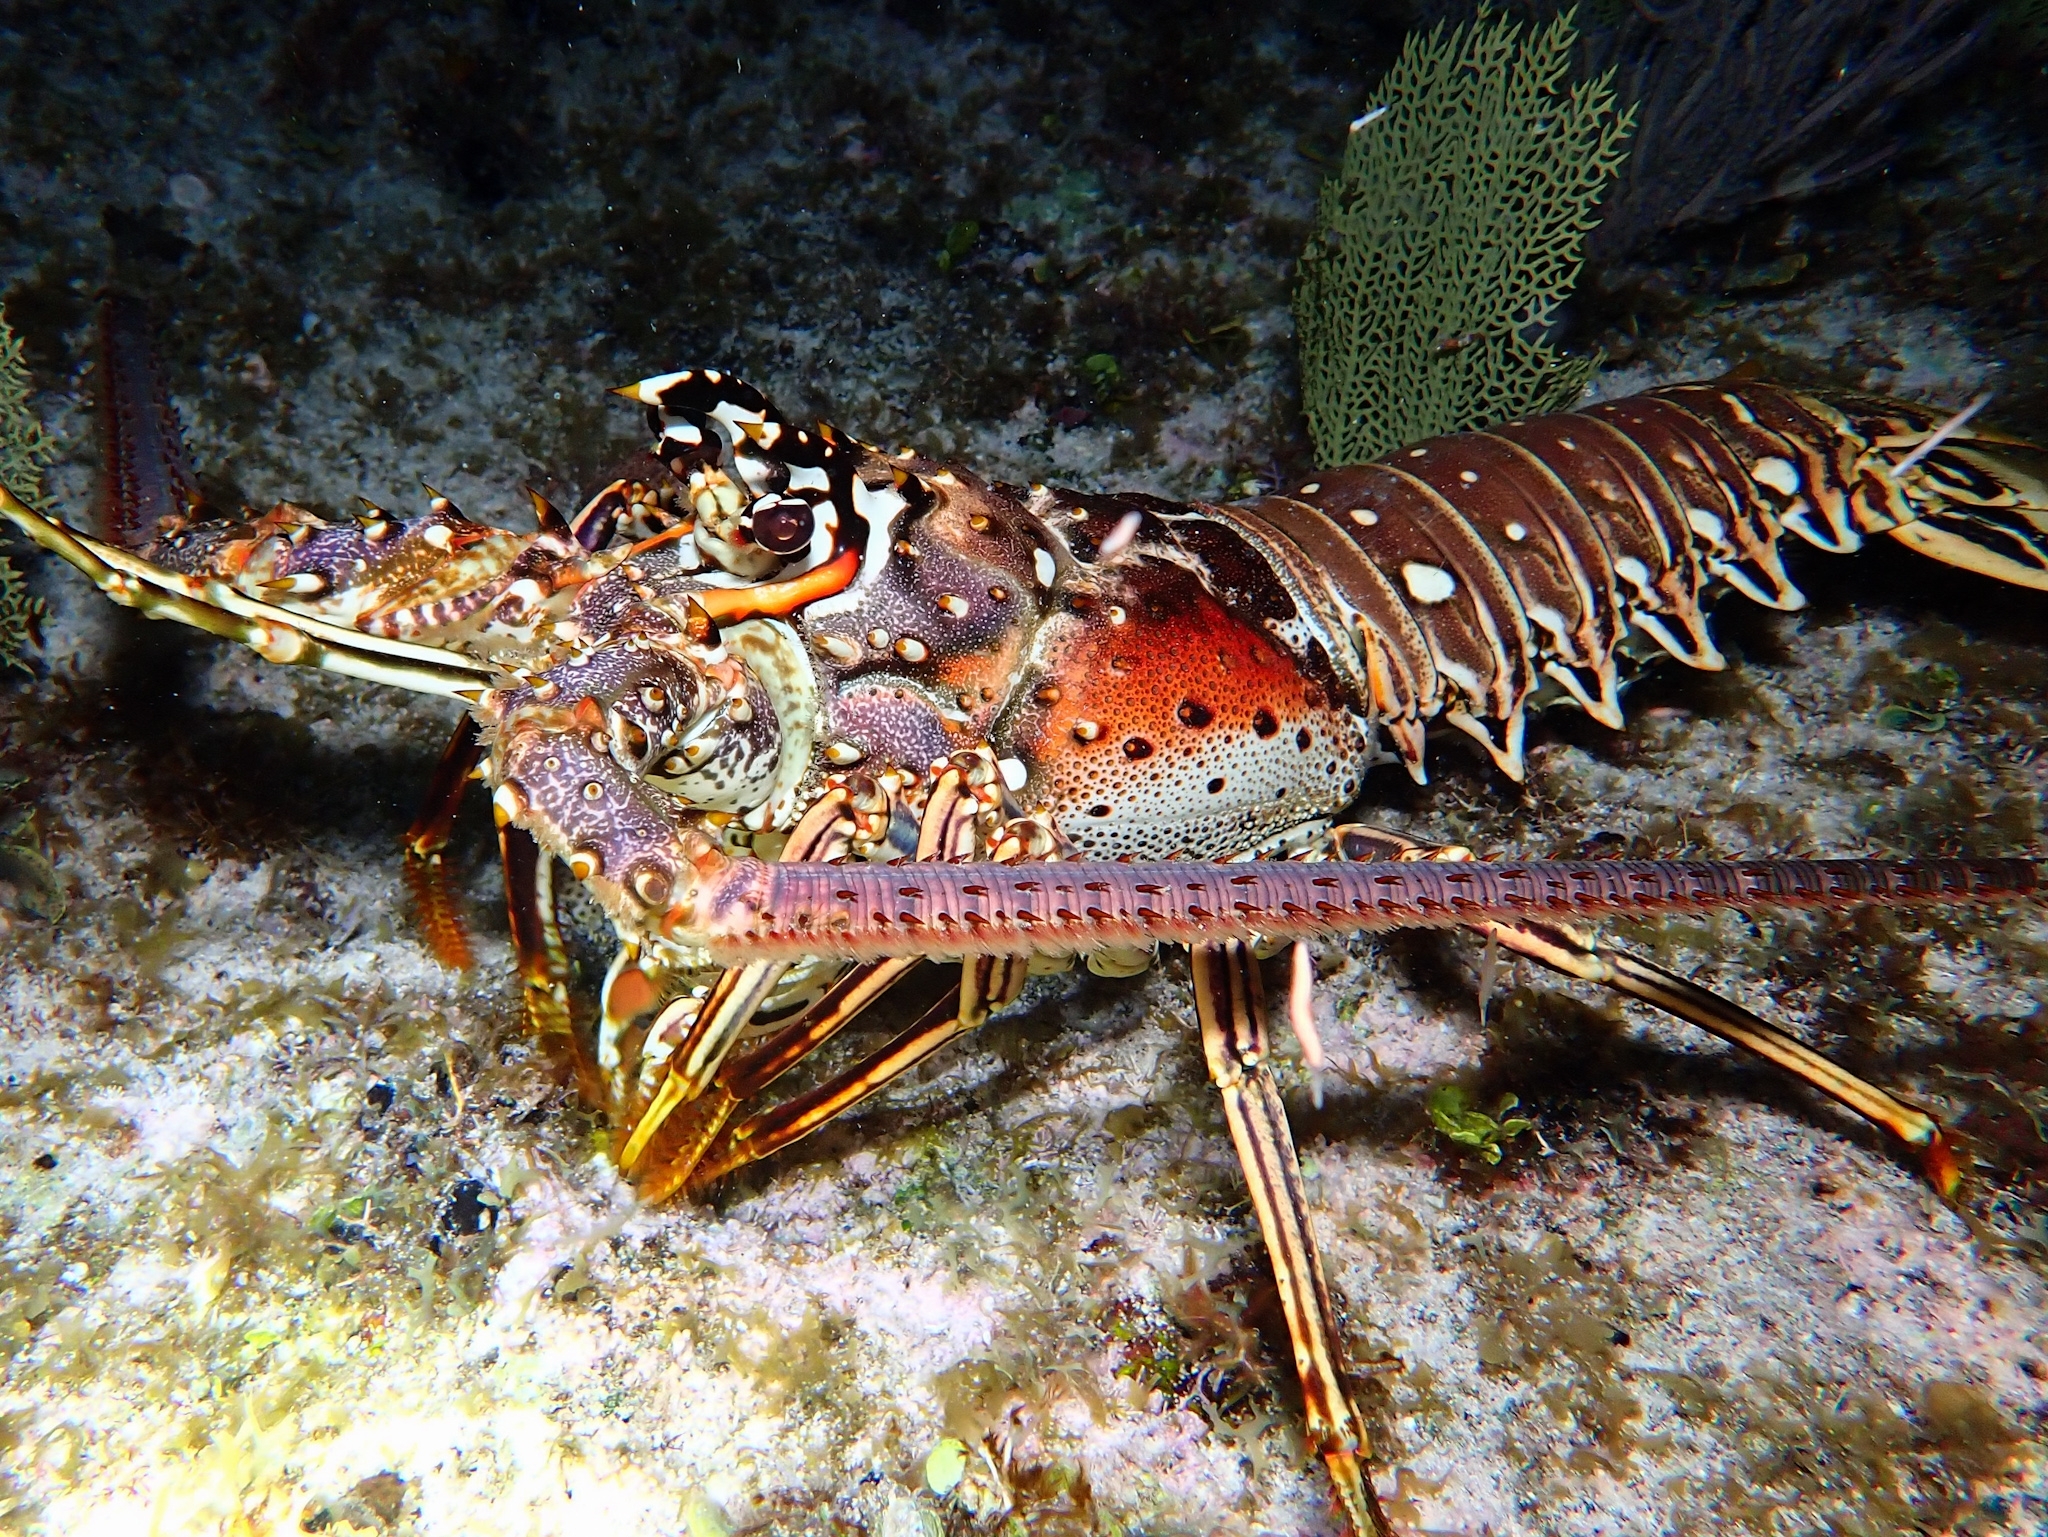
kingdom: Animalia
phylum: Arthropoda
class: Malacostraca
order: Decapoda
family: Palinuridae
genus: Panulirus
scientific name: Panulirus argus
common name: Caribbean spiny lobster
